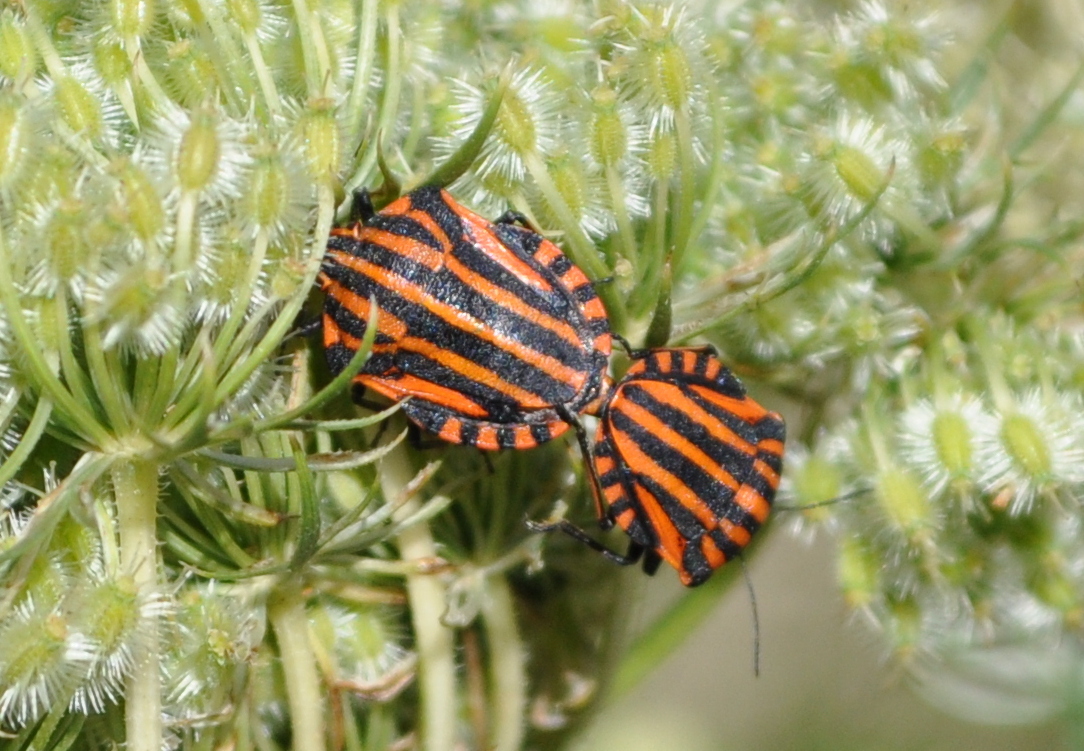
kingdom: Animalia
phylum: Arthropoda
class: Insecta
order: Hemiptera
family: Pentatomidae
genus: Graphosoma
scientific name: Graphosoma italicum
